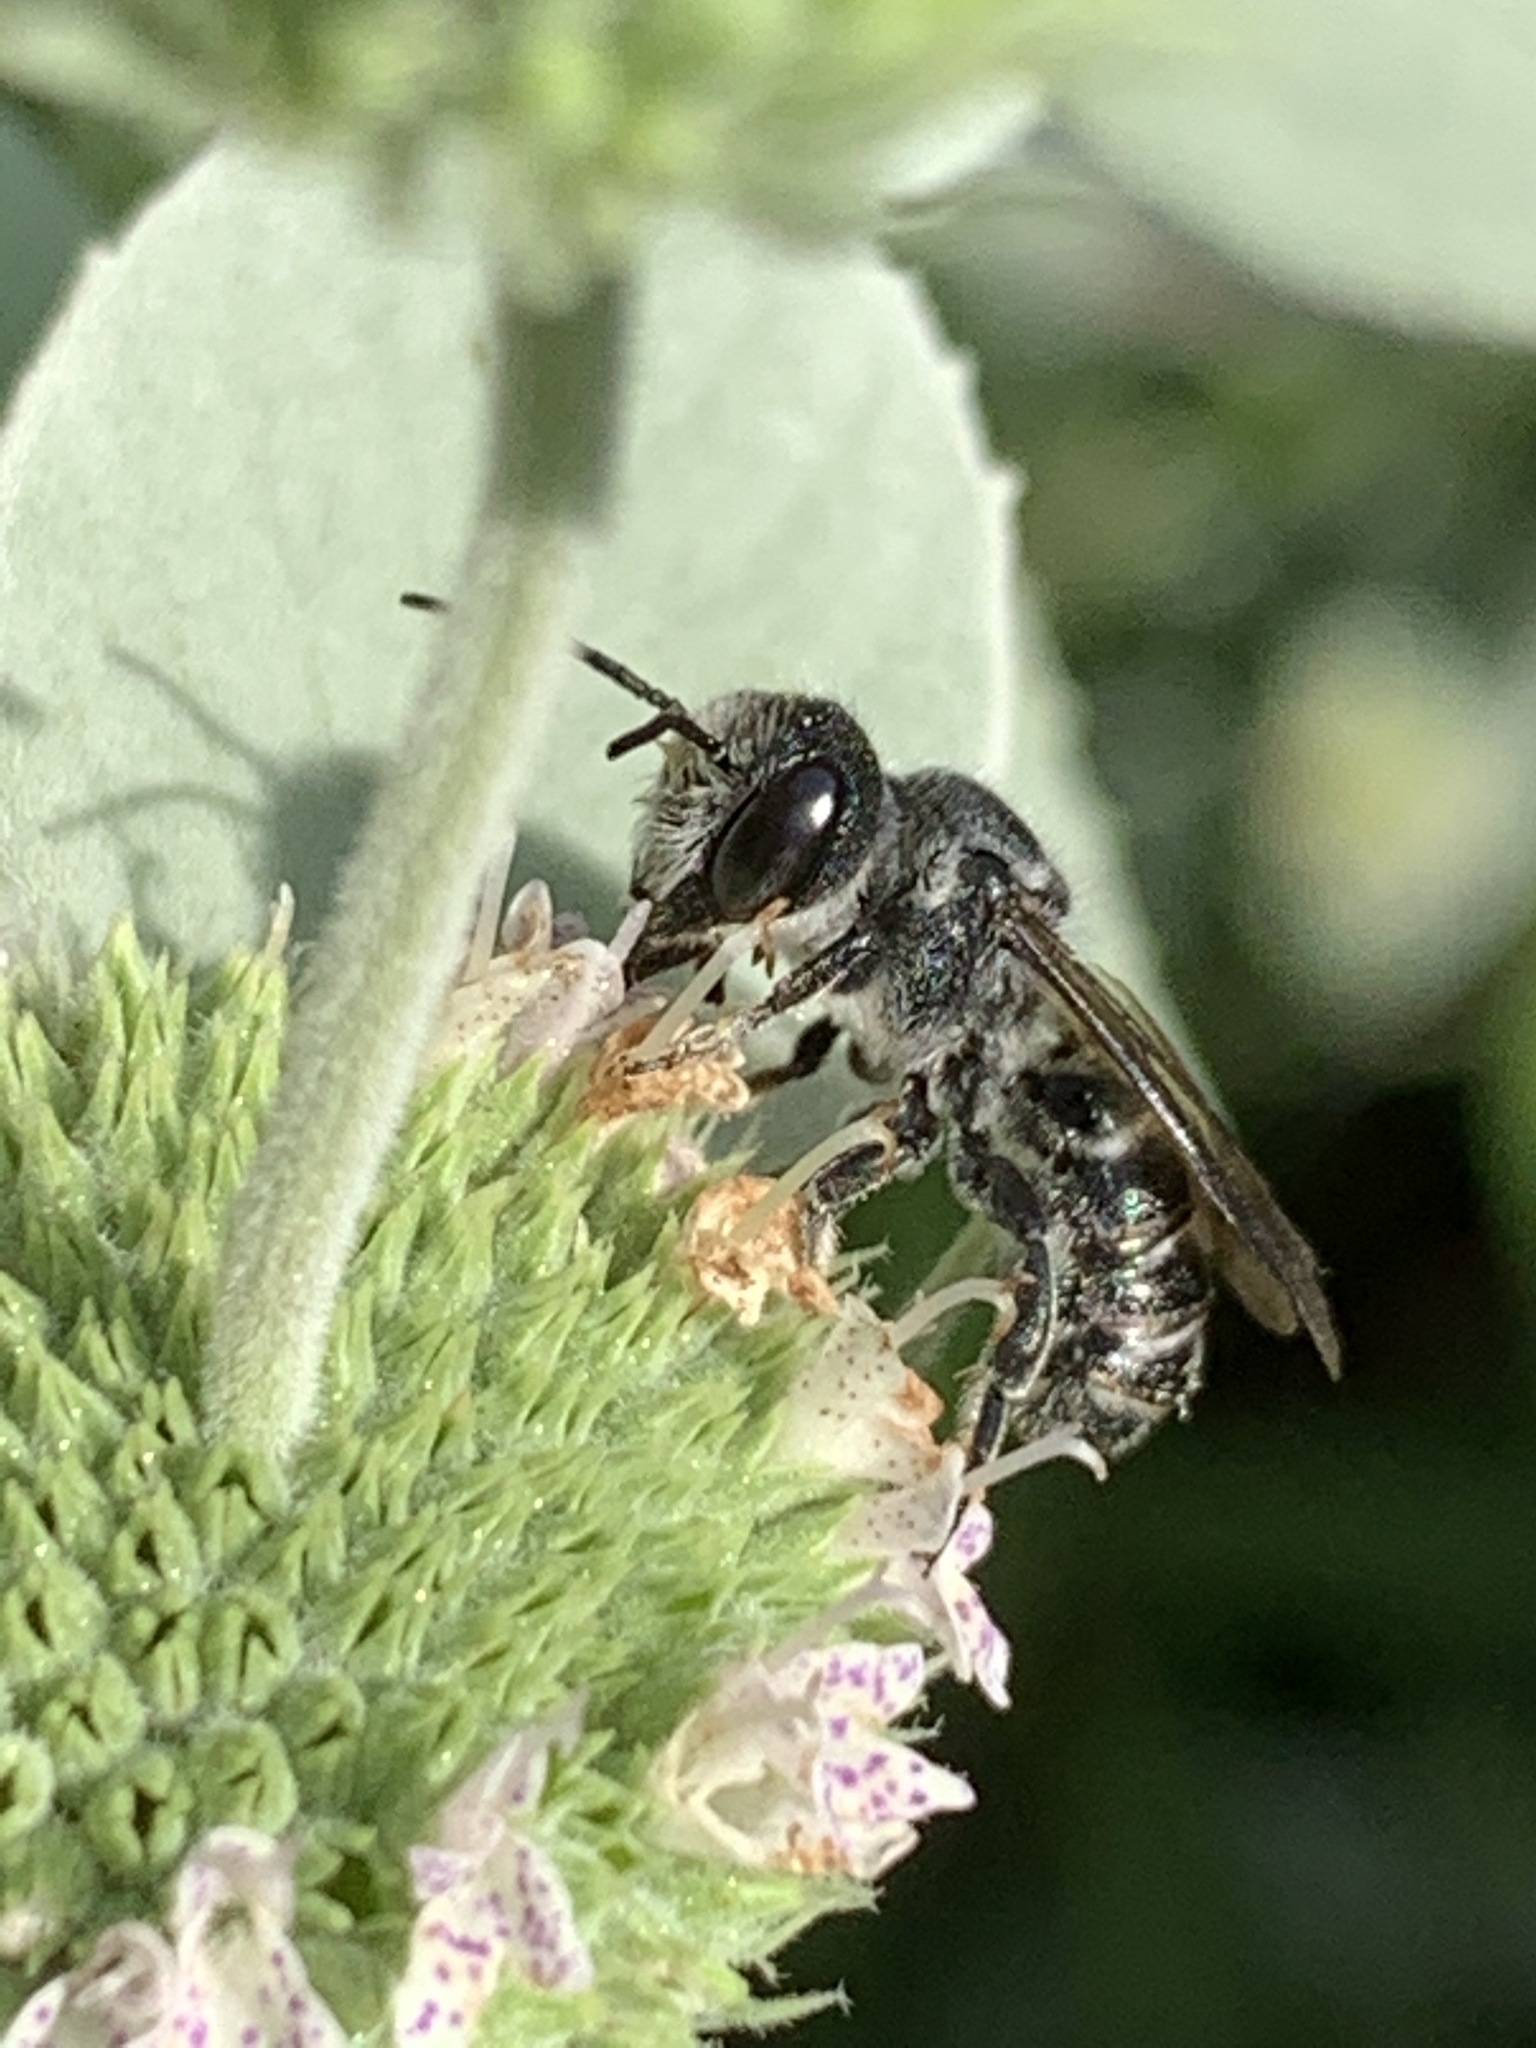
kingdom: Animalia
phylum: Arthropoda
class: Insecta
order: Hymenoptera
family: Megachilidae
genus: Megachile
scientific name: Megachile campanulae
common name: Bellflower resin bee
